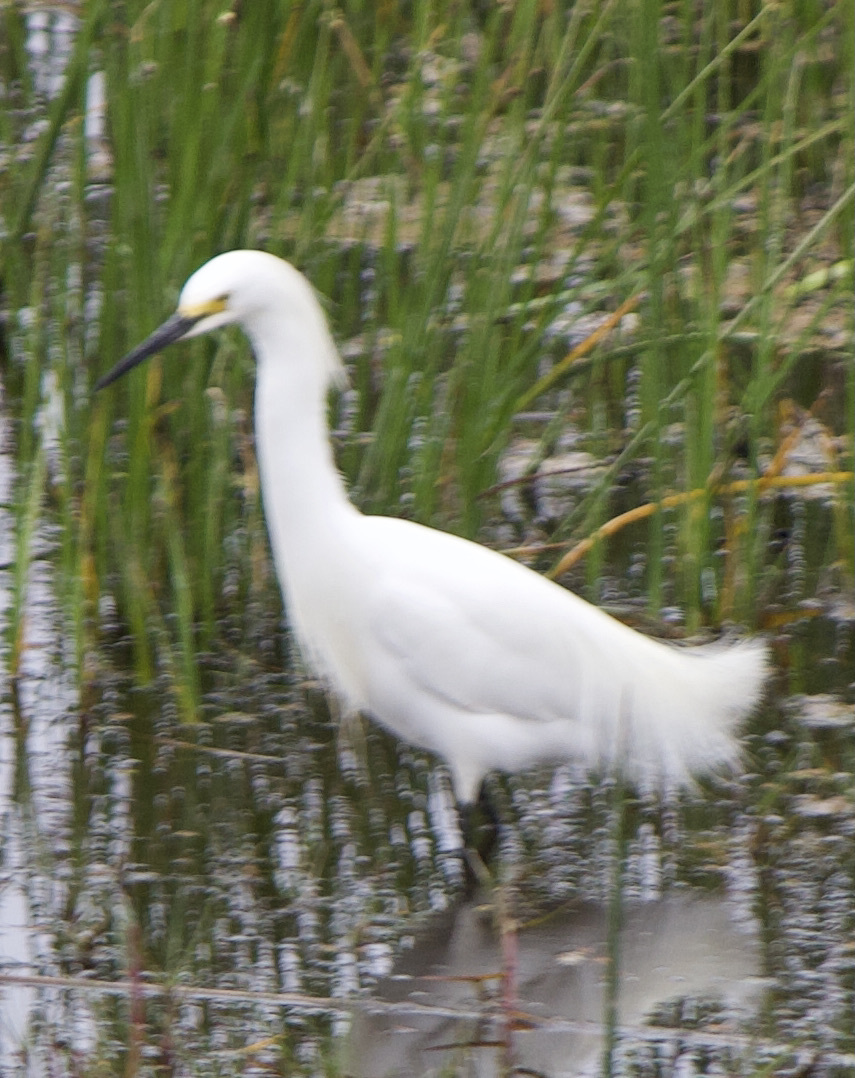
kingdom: Animalia
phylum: Chordata
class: Aves
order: Pelecaniformes
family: Ardeidae
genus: Egretta
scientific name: Egretta thula
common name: Snowy egret
